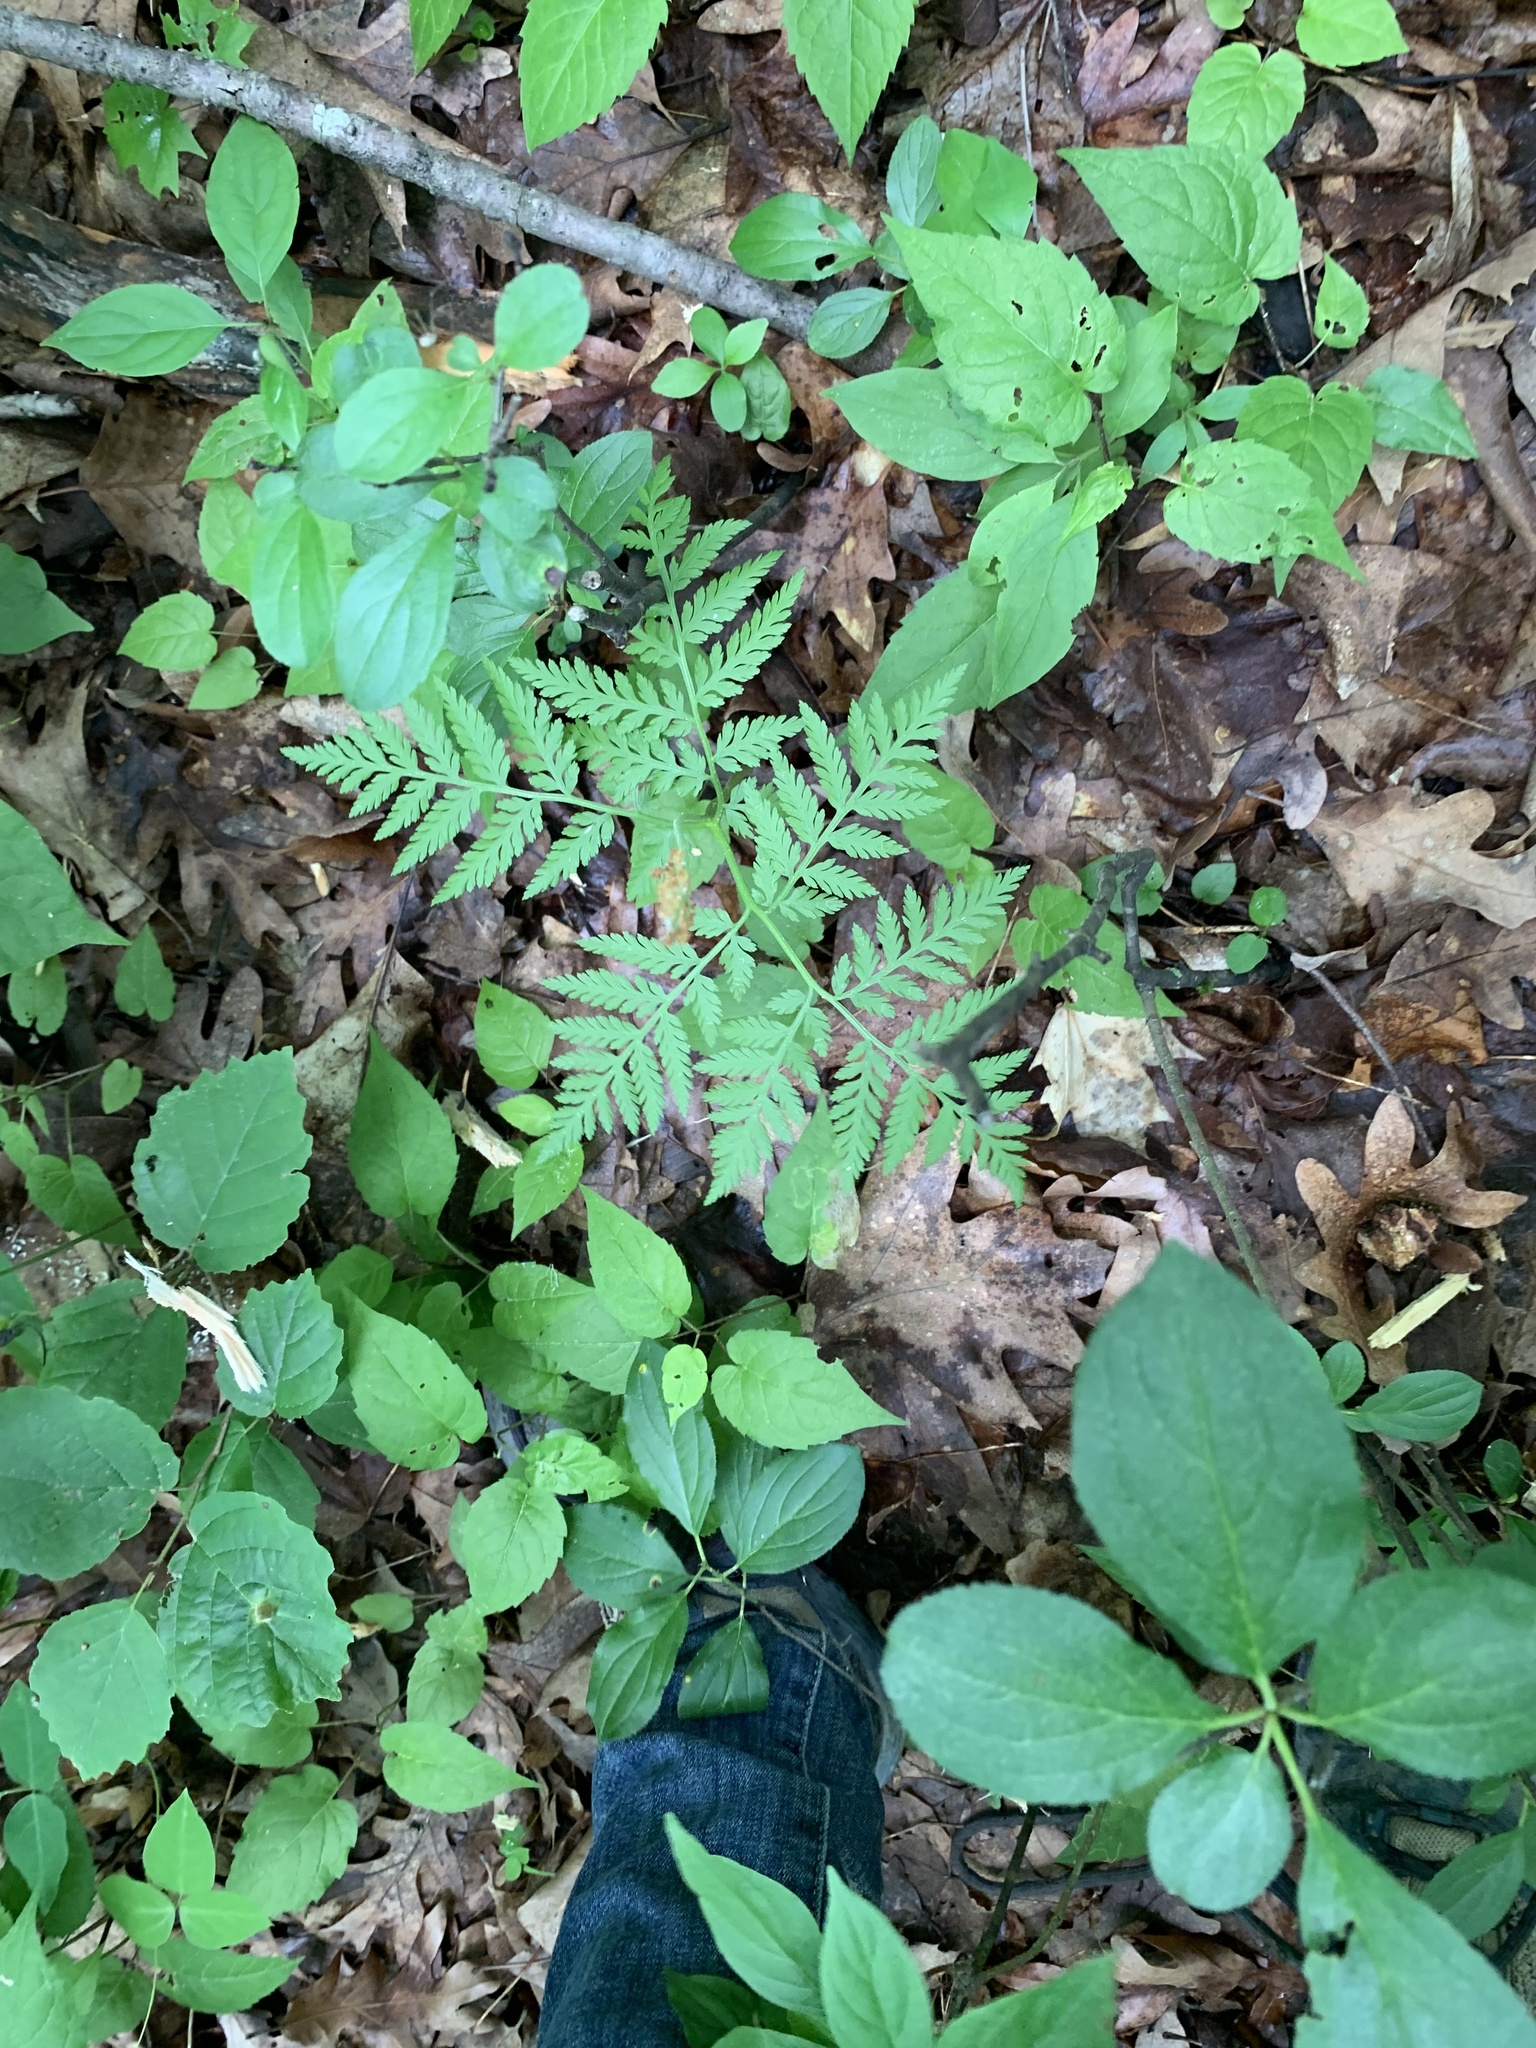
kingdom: Plantae
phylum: Tracheophyta
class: Polypodiopsida
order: Ophioglossales
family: Ophioglossaceae
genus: Botrypus
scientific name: Botrypus virginianus
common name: Common grapefern
